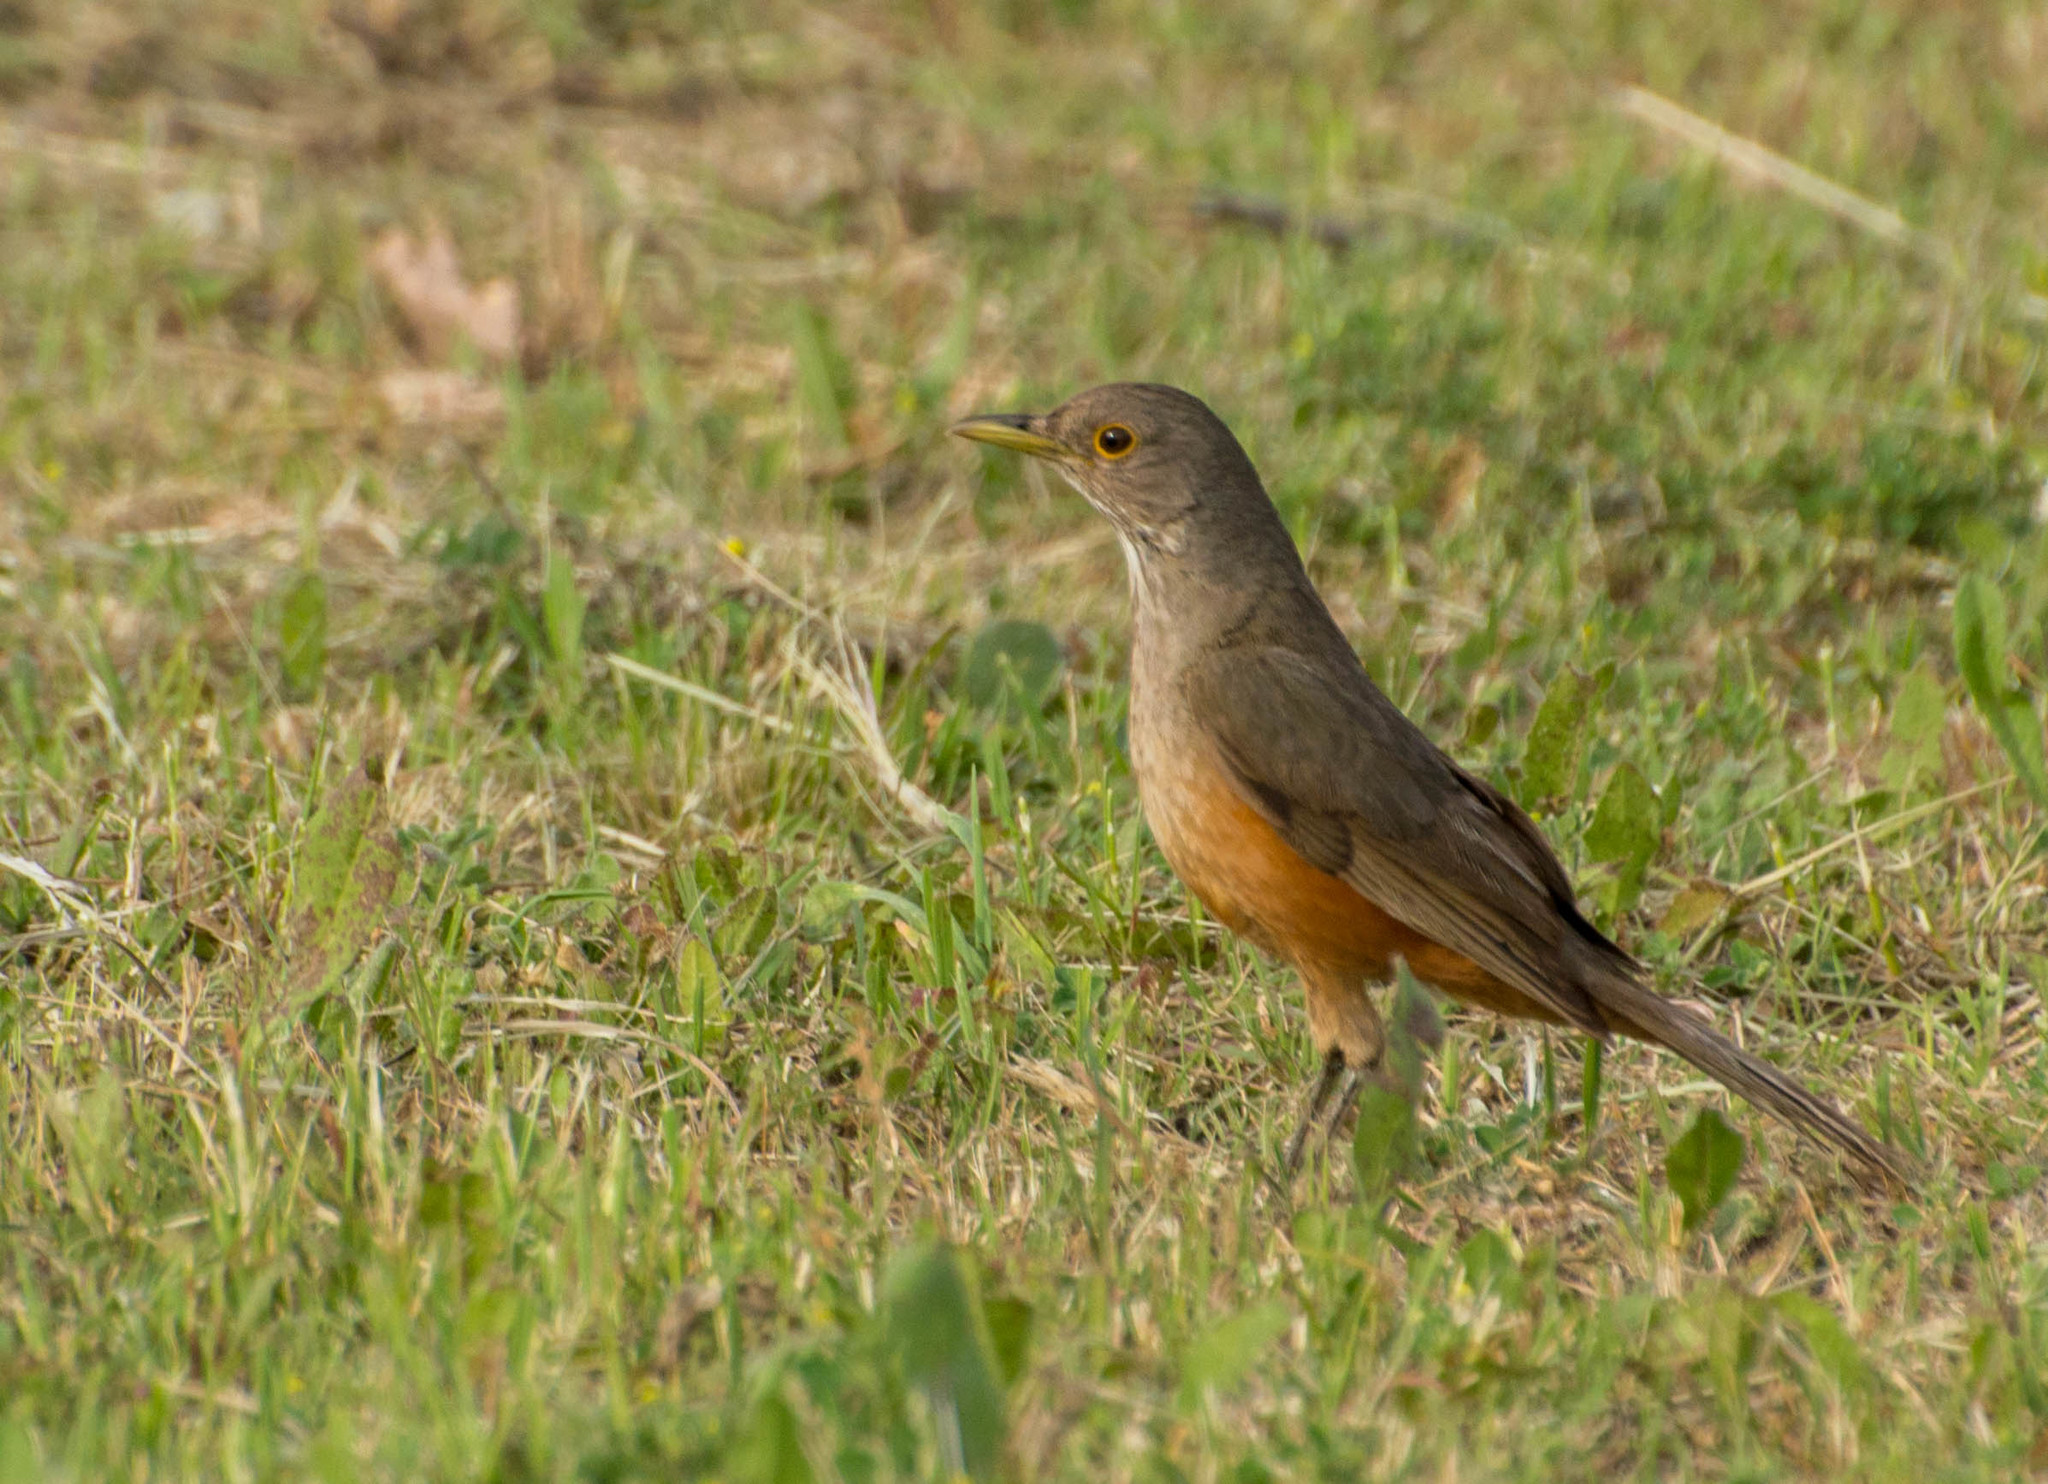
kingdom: Animalia
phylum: Chordata
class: Aves
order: Passeriformes
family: Turdidae
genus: Turdus
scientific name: Turdus rufiventris
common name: Rufous-bellied thrush
